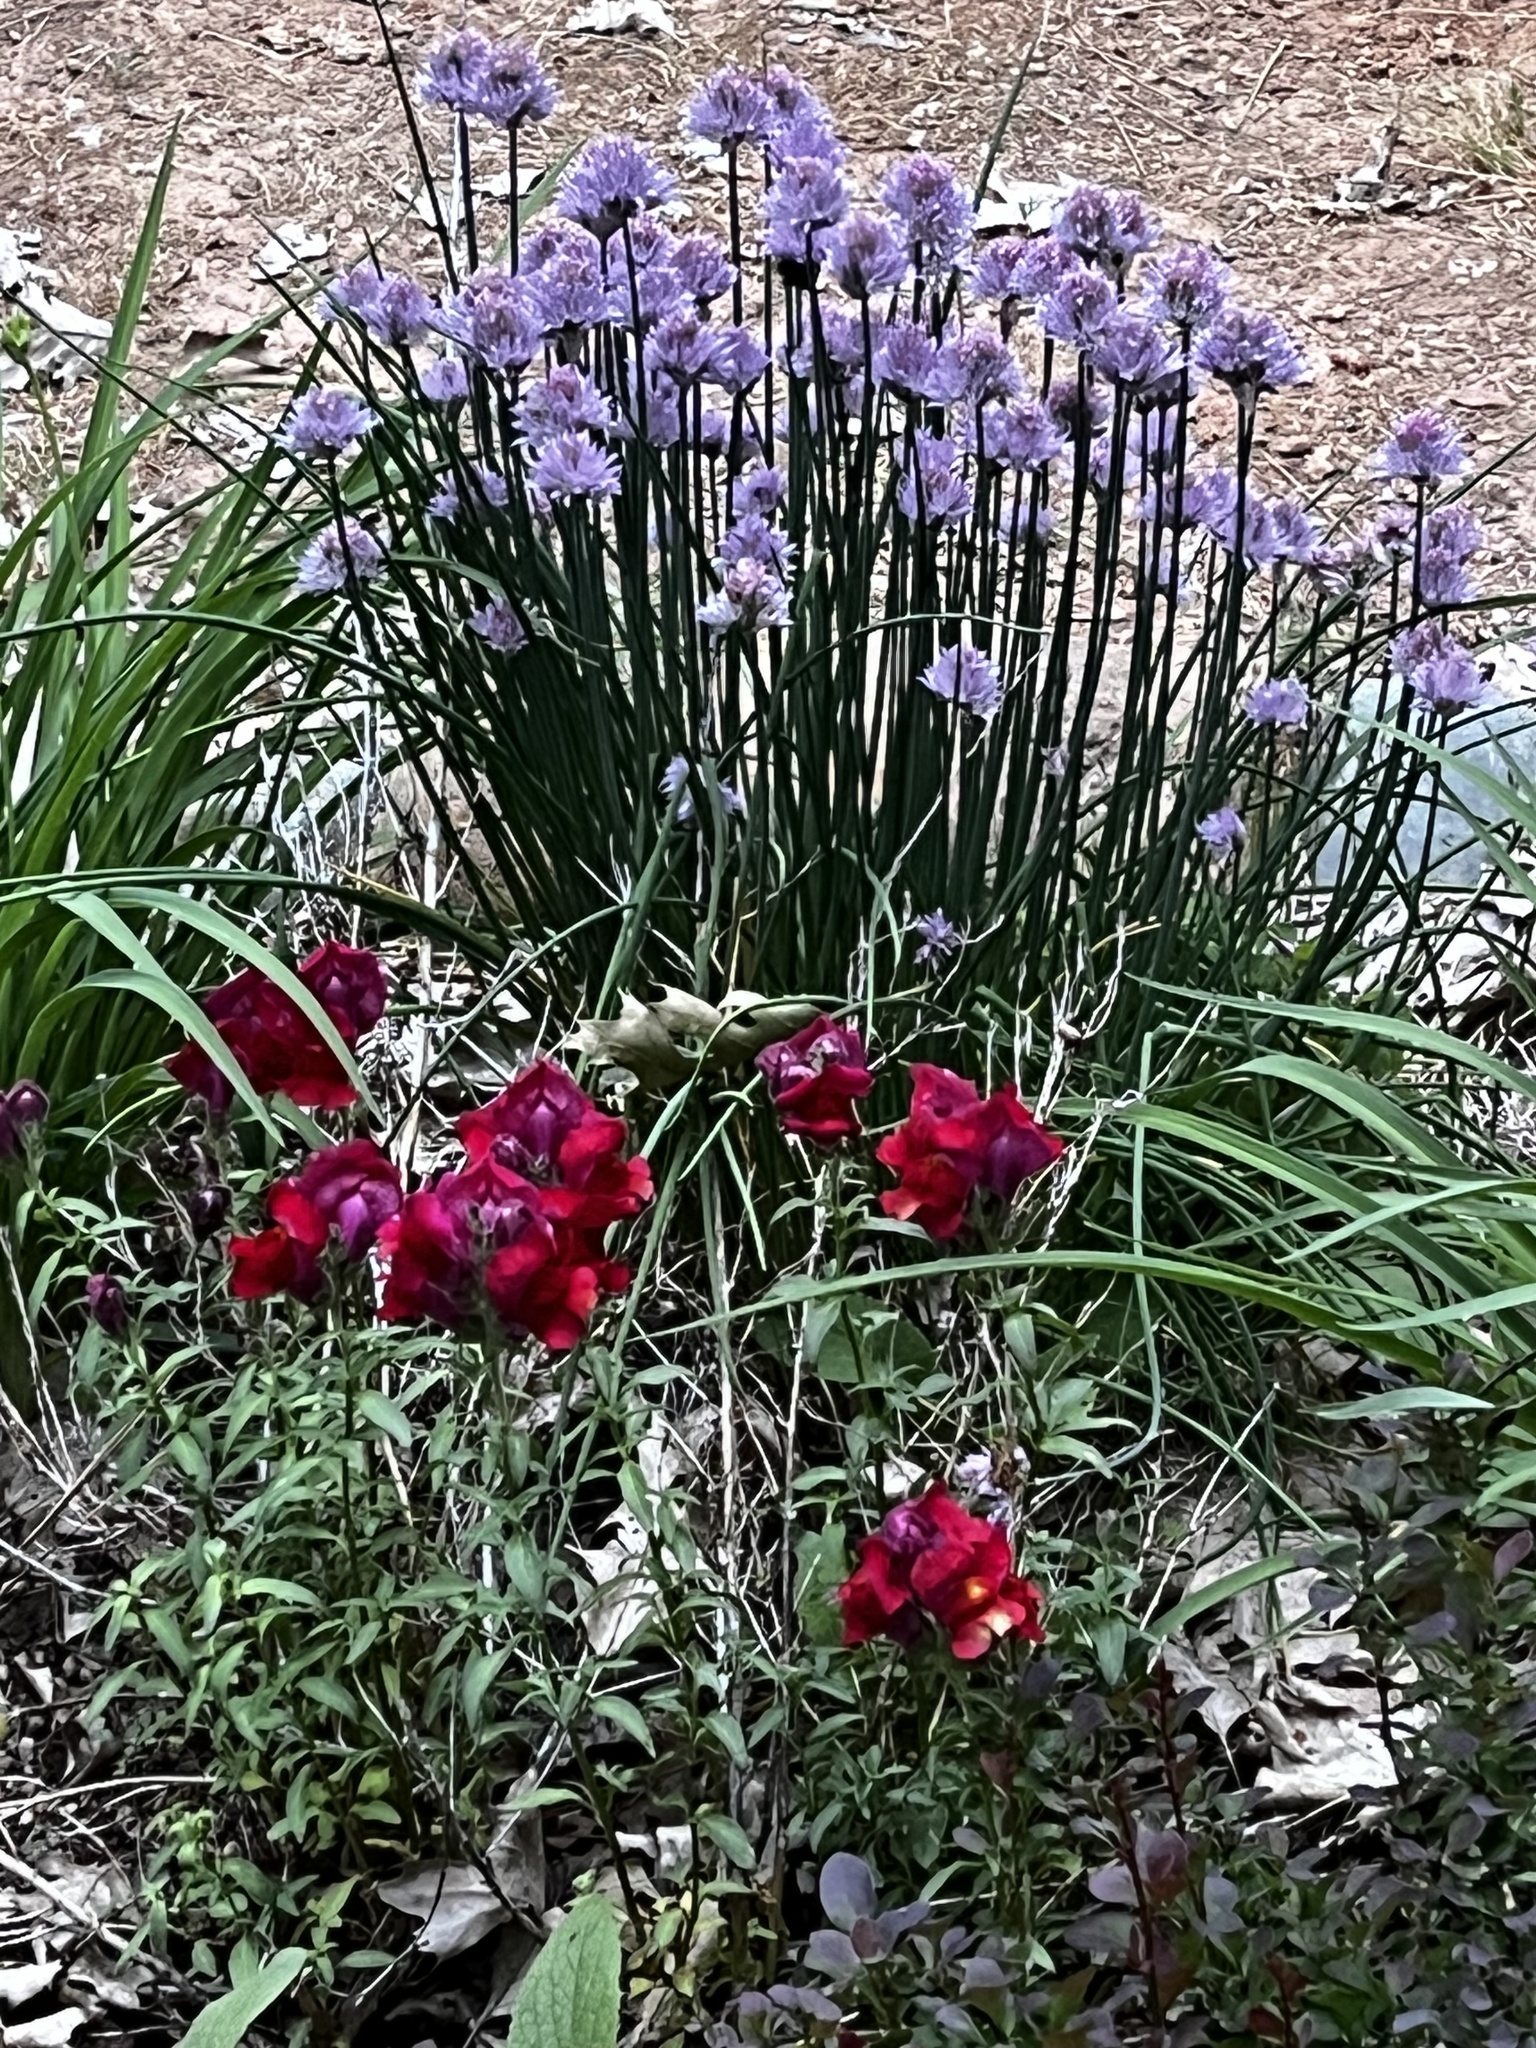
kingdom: Plantae
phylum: Tracheophyta
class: Magnoliopsida
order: Asterales
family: Campanulaceae
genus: Campanula
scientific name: Campanula medium
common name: Canterbury bells
